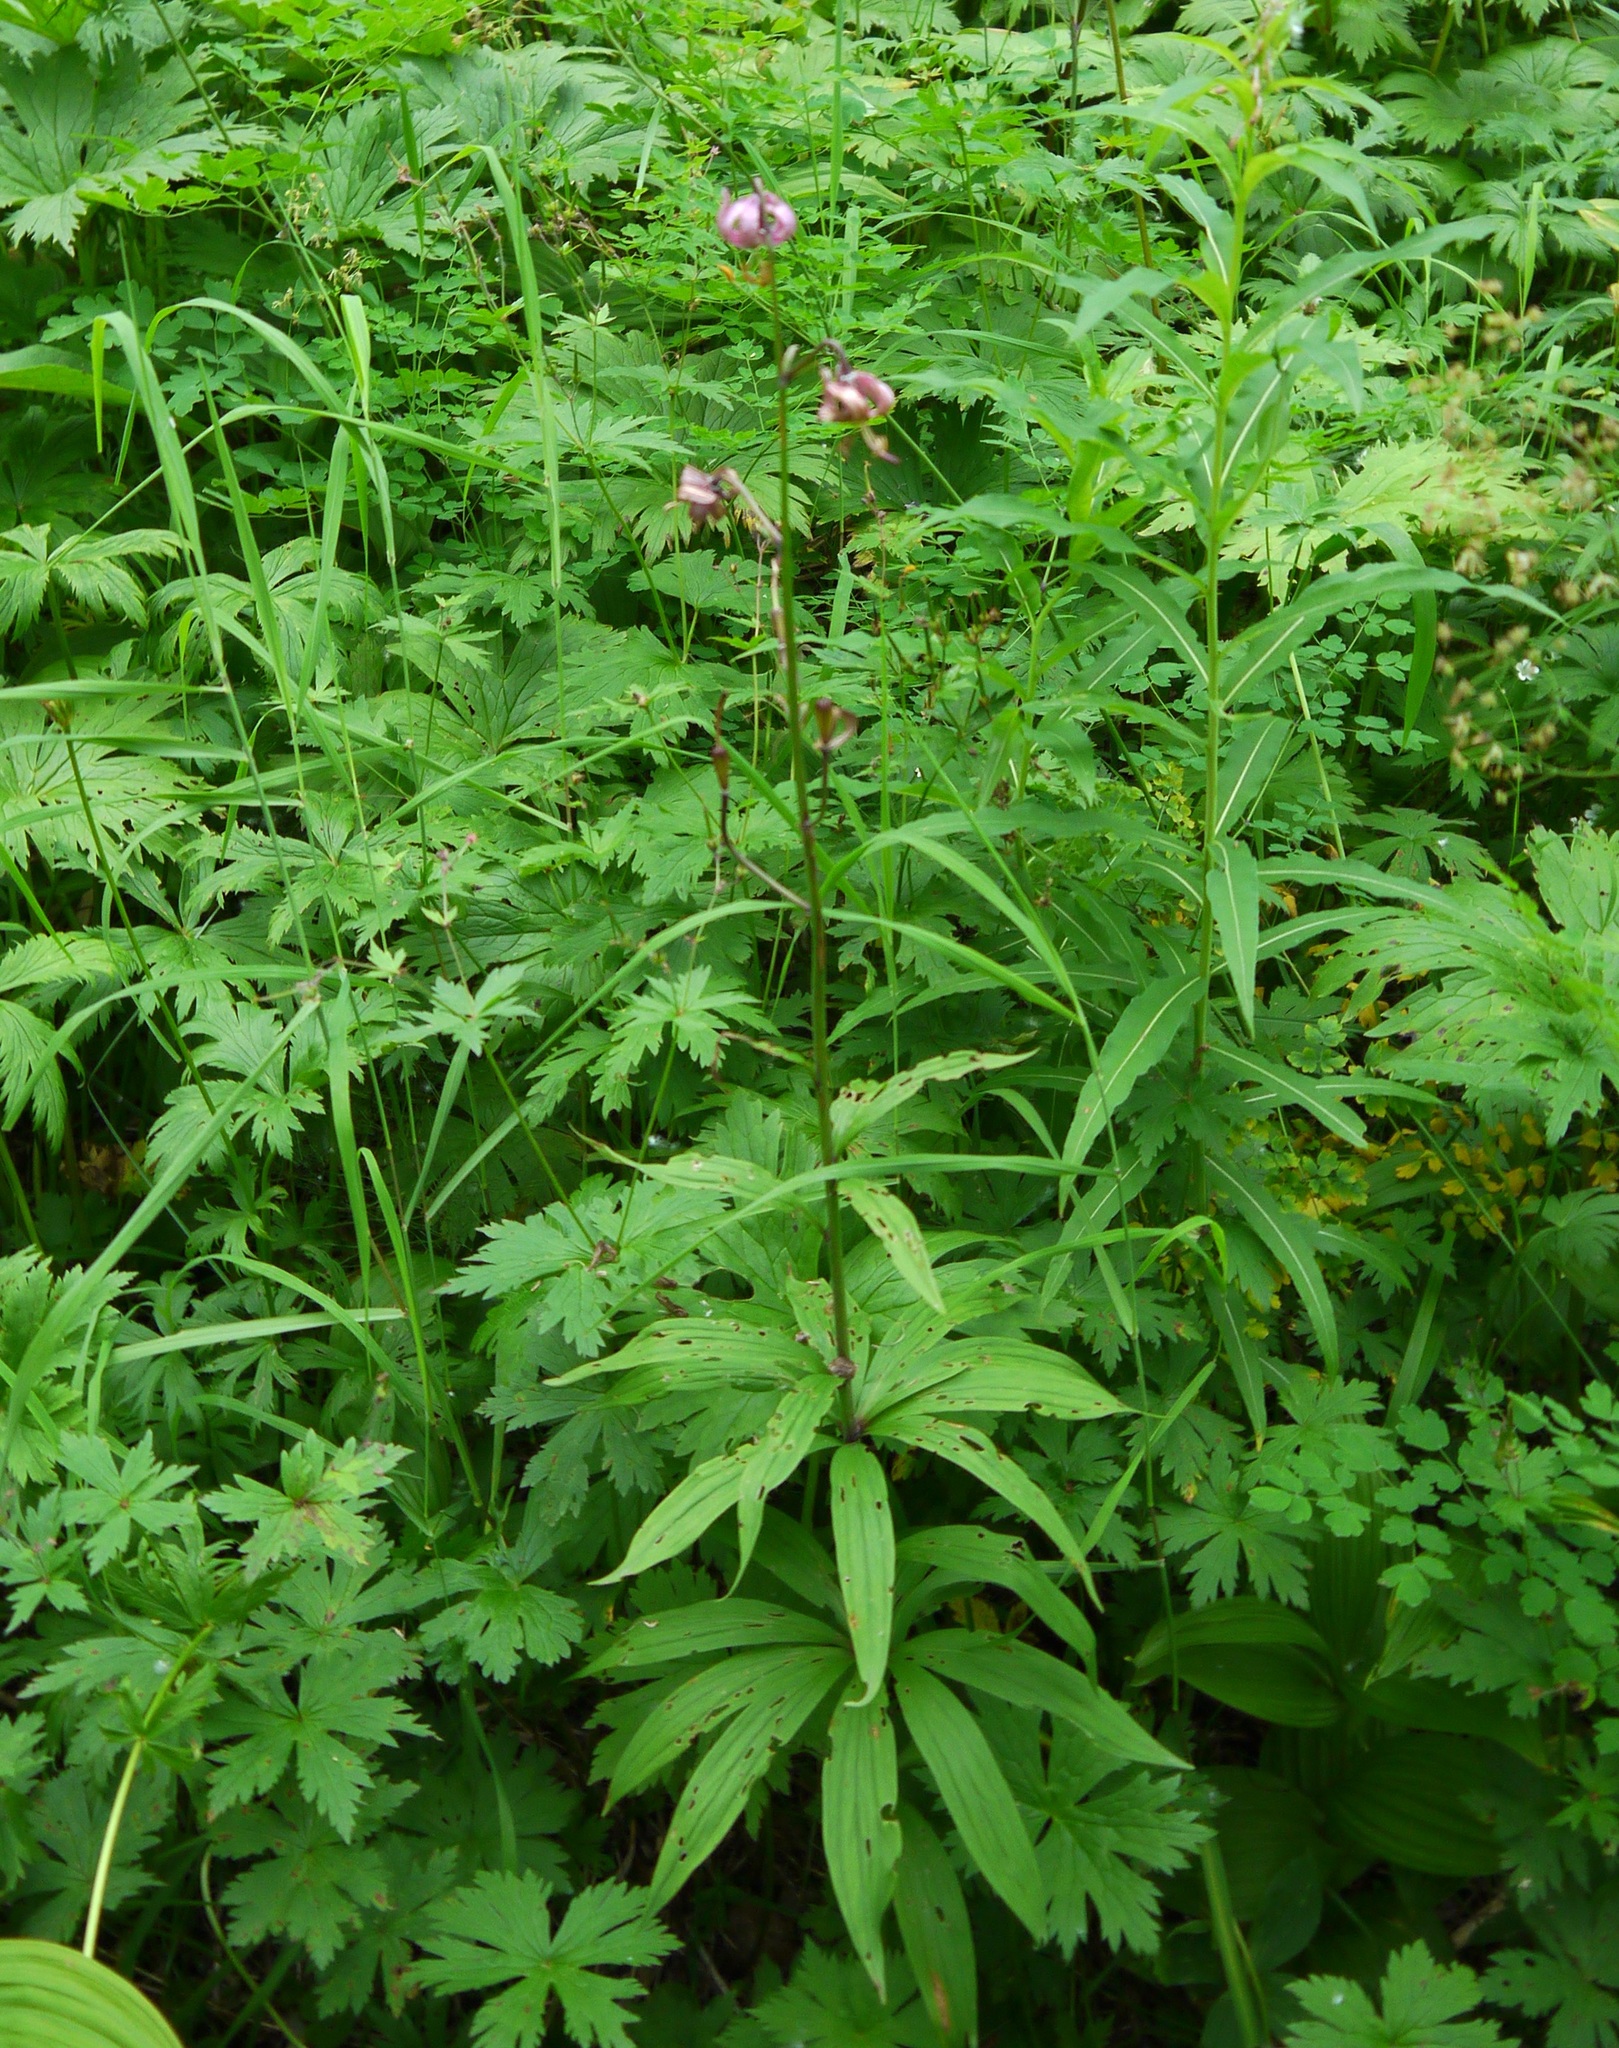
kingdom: Plantae
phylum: Tracheophyta
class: Liliopsida
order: Liliales
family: Liliaceae
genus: Lilium
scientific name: Lilium martagon
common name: Martagon lily
